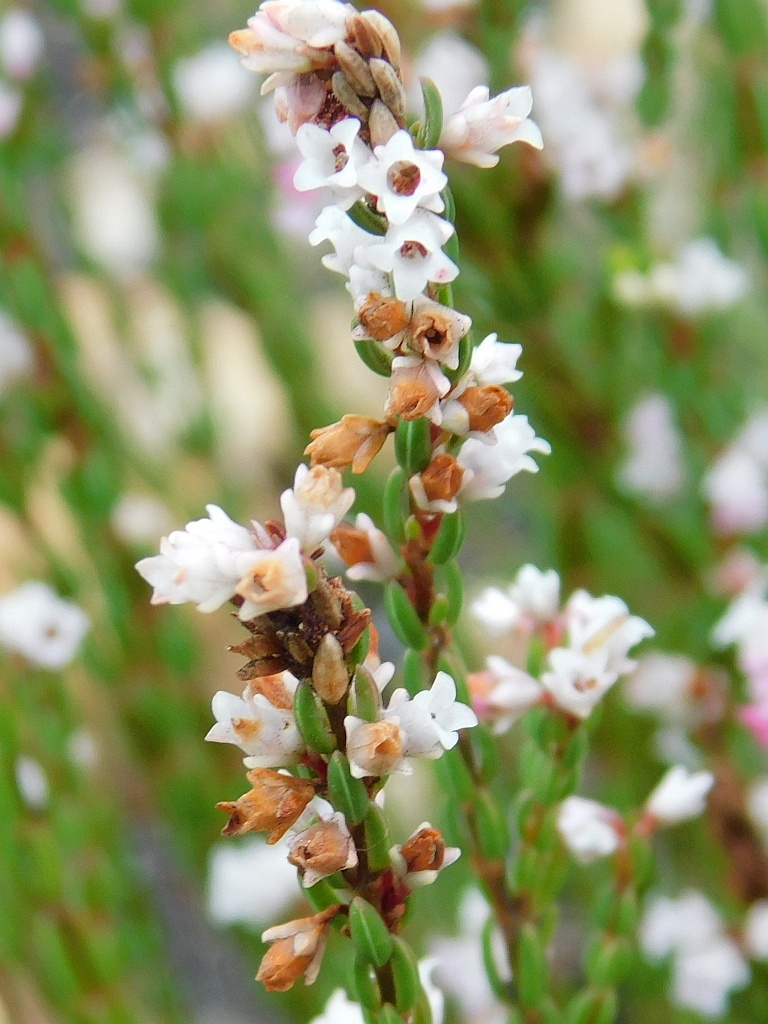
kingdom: Plantae
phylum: Tracheophyta
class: Magnoliopsida
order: Ericales
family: Ericaceae
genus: Erica
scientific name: Erica articularis
